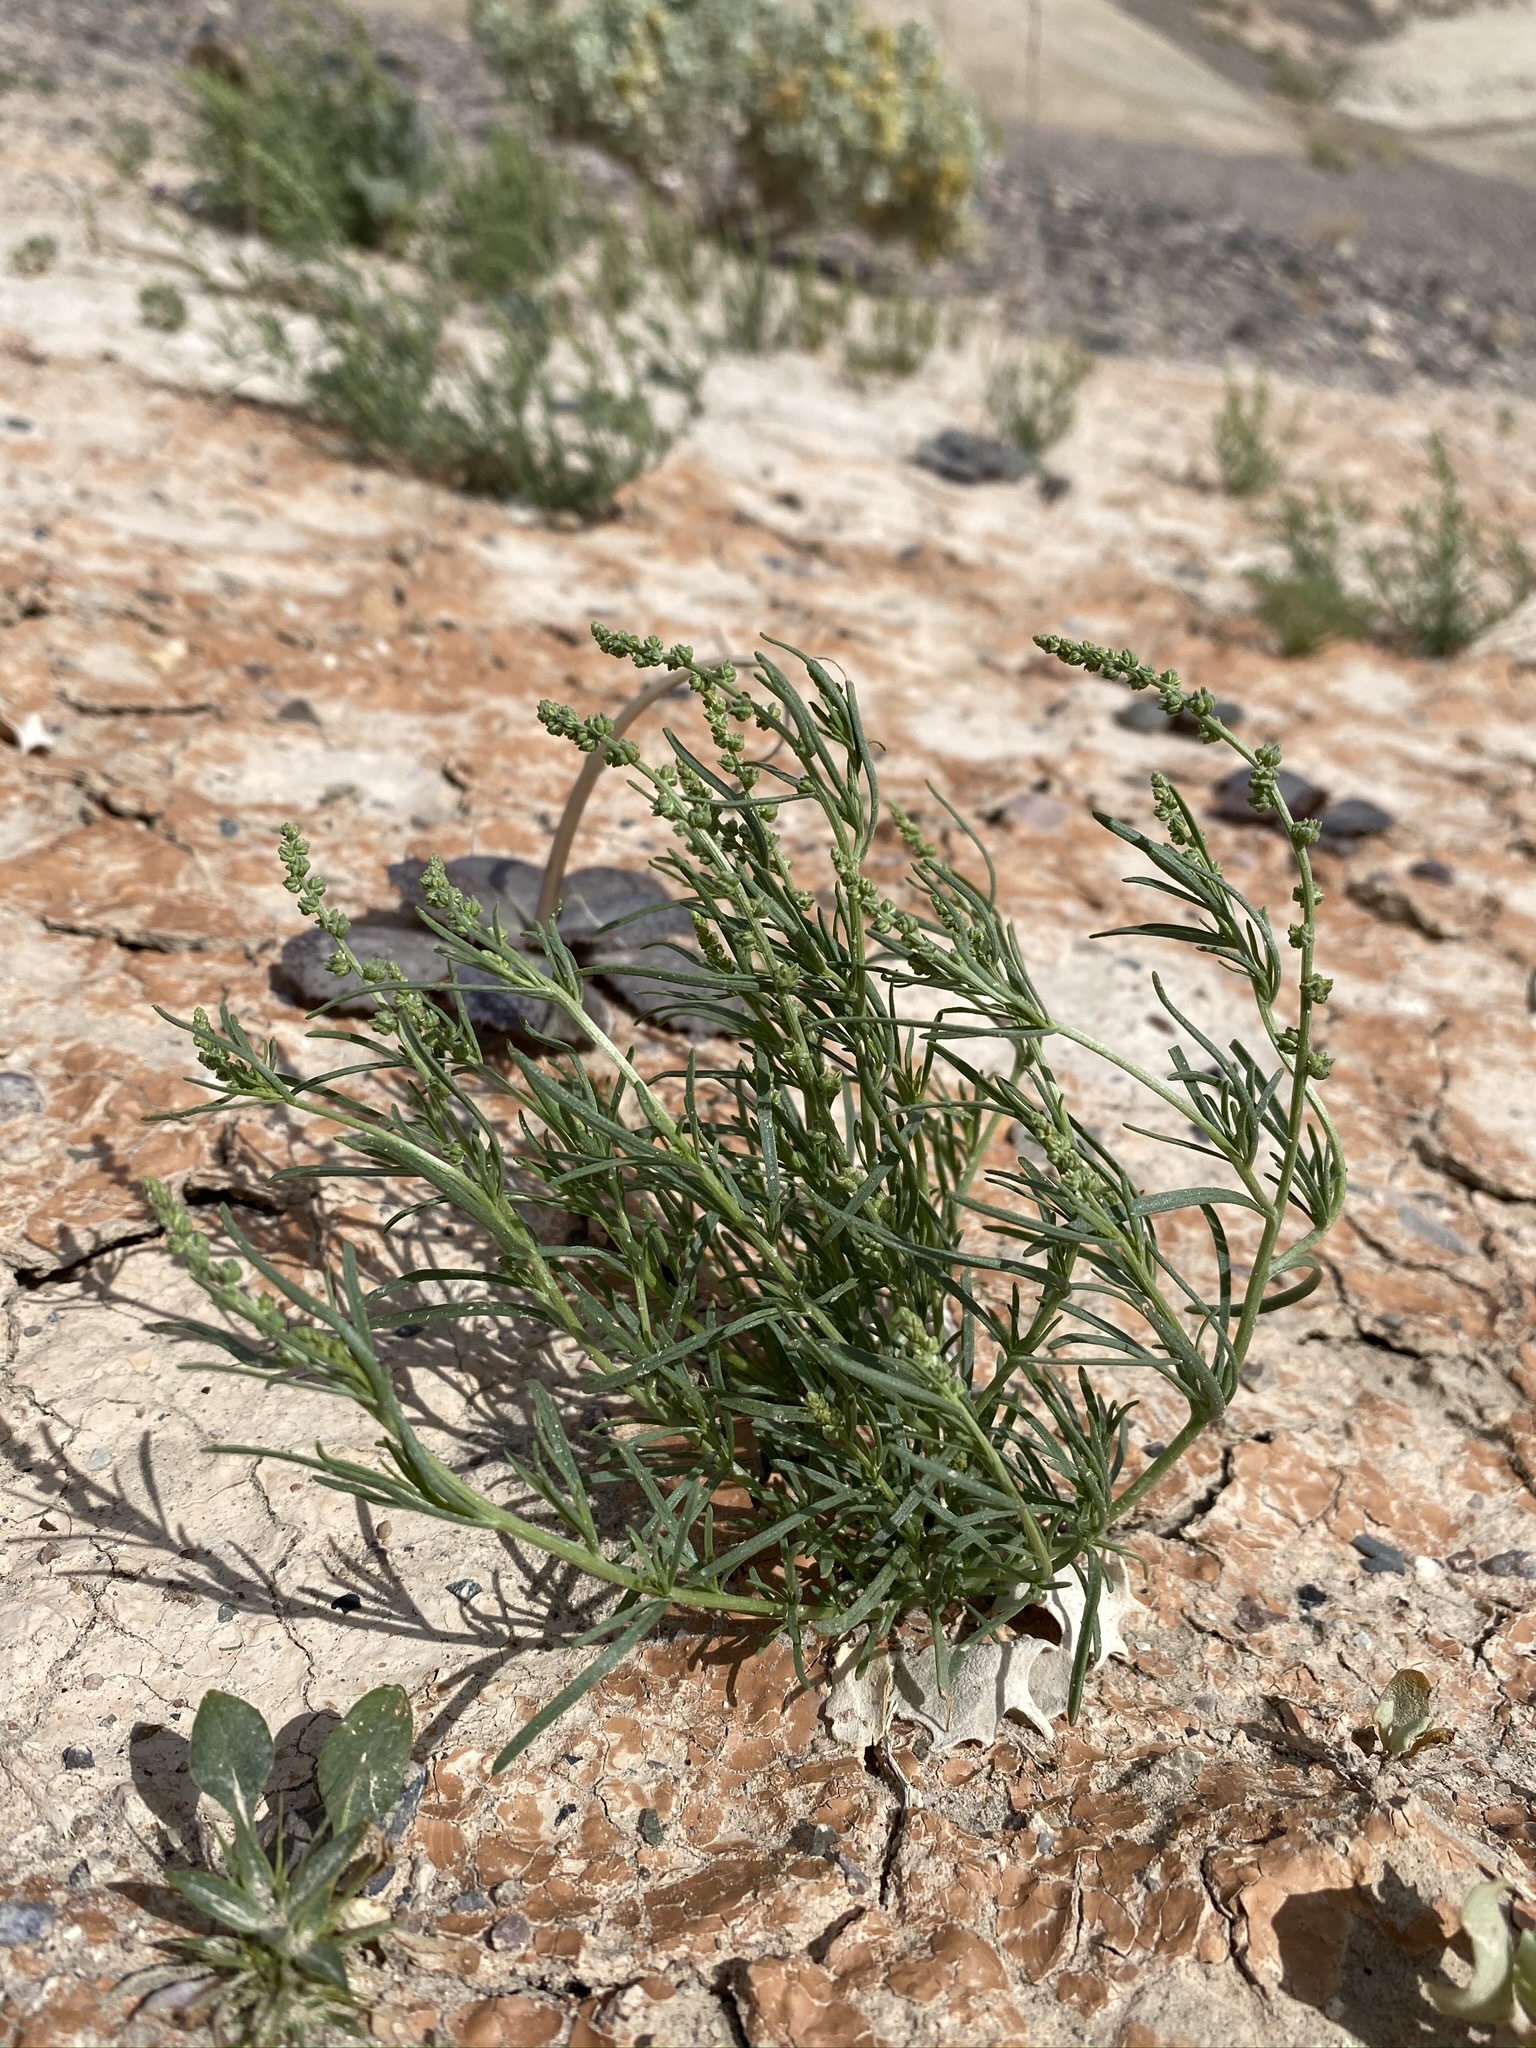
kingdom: Plantae
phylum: Tracheophyta
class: Magnoliopsida
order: Brassicales
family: Resedaceae
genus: Oligomeris
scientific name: Oligomeris linifolia
